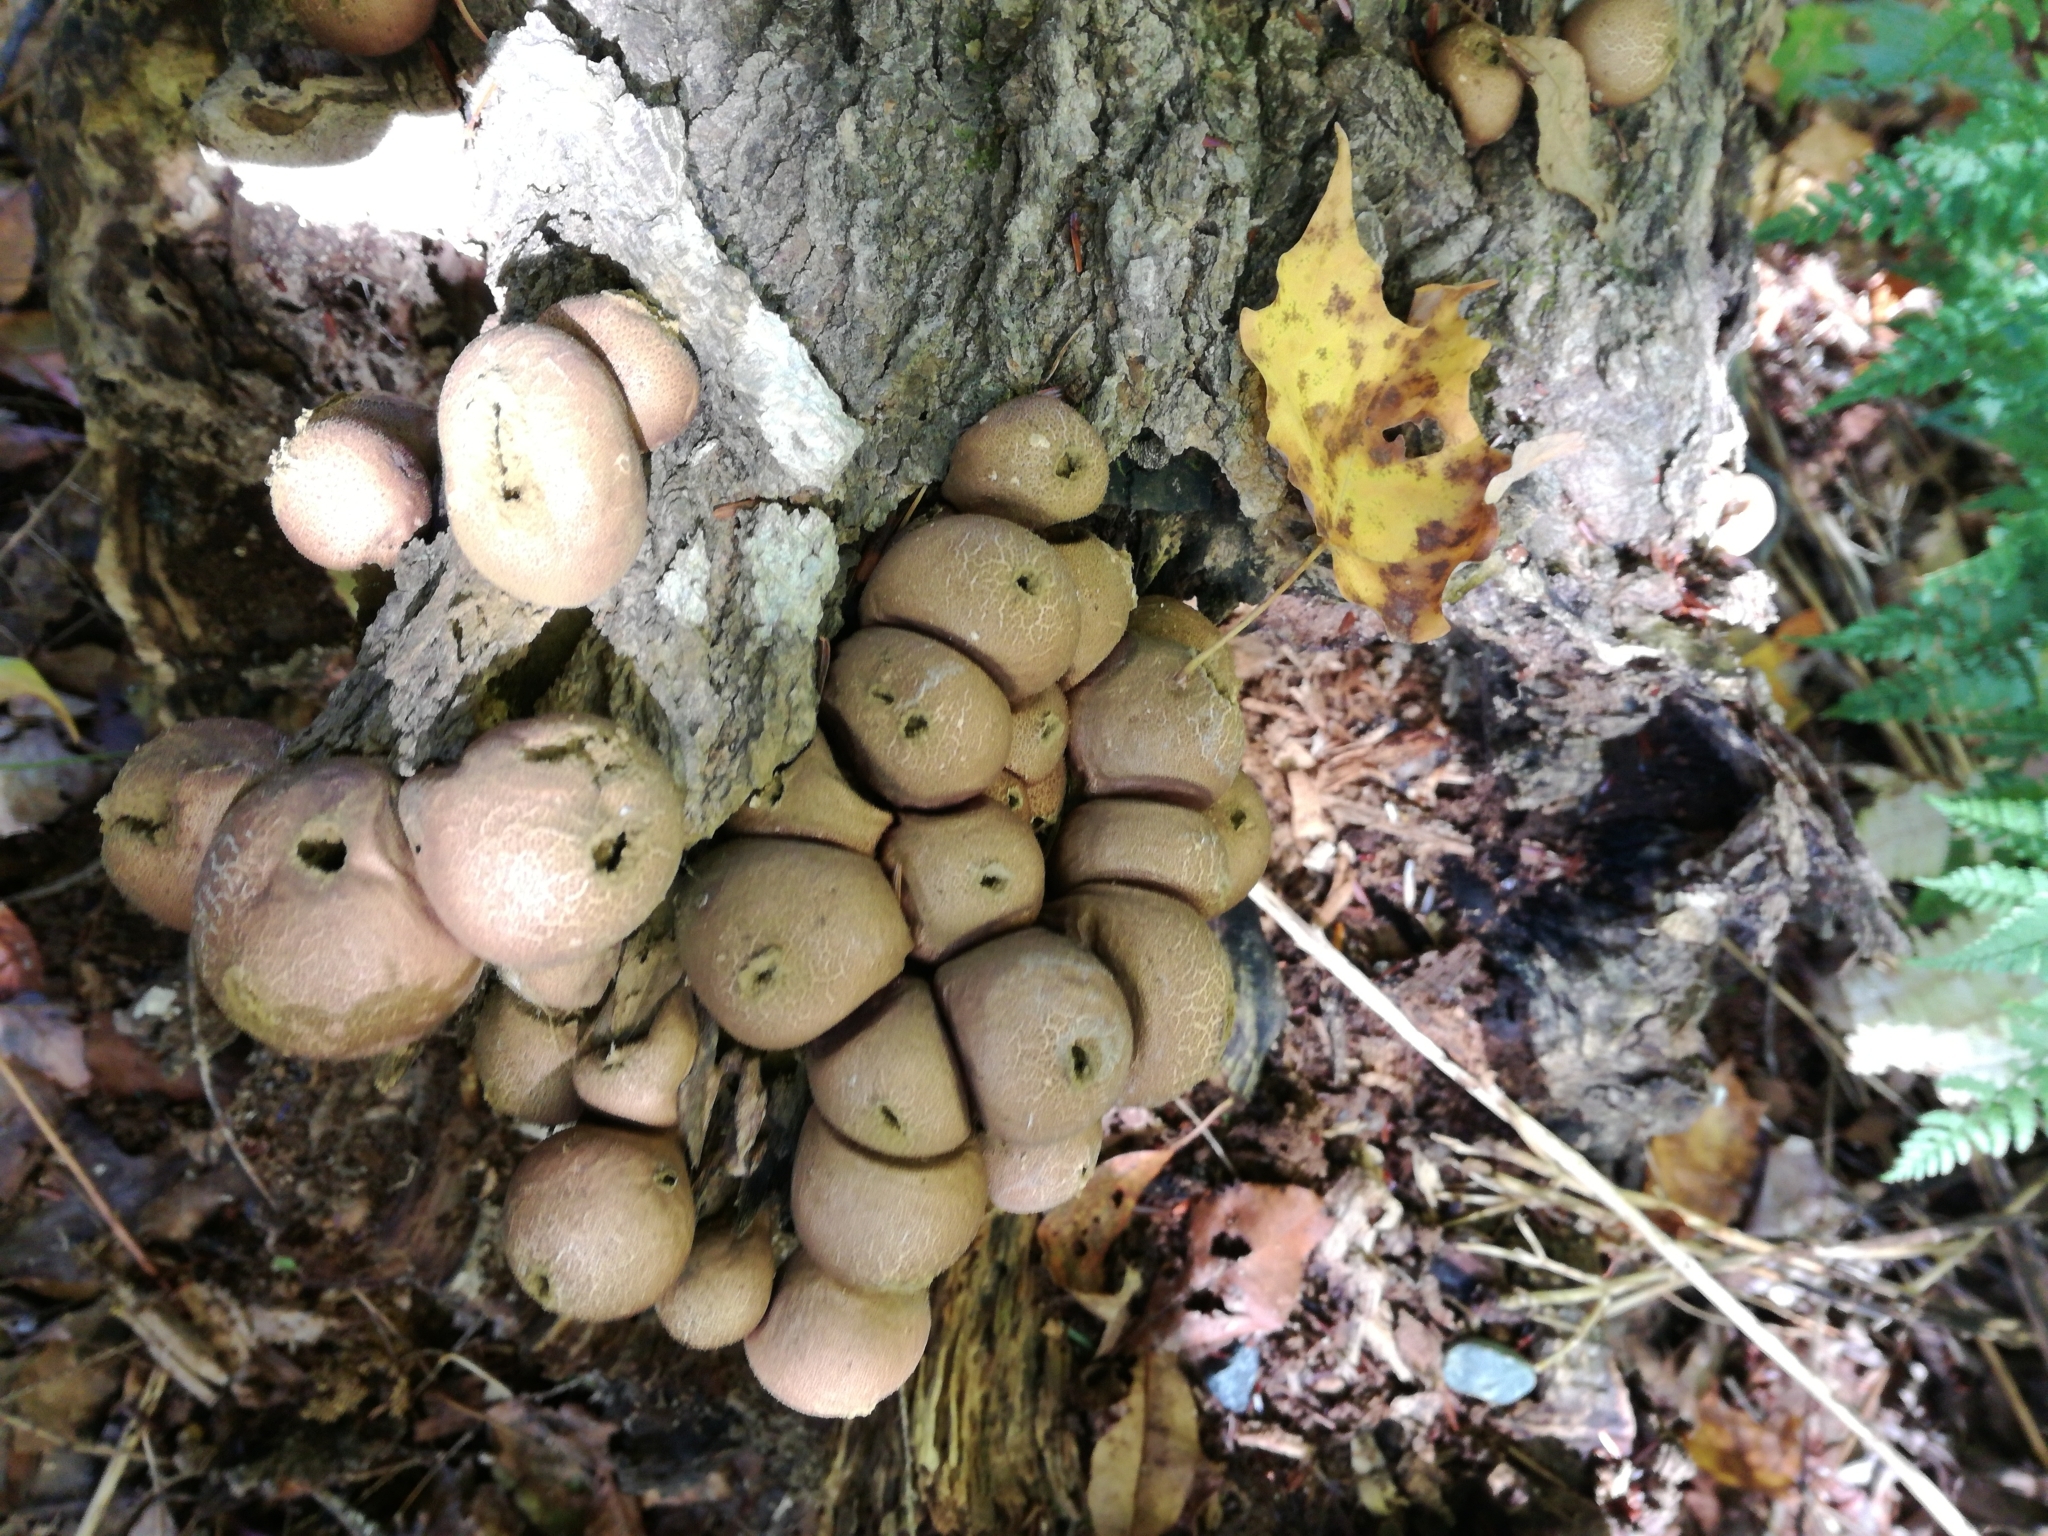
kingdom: Fungi
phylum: Basidiomycota
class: Agaricomycetes
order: Agaricales
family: Lycoperdaceae
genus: Apioperdon
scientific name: Apioperdon pyriforme
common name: Pear-shaped puffball
